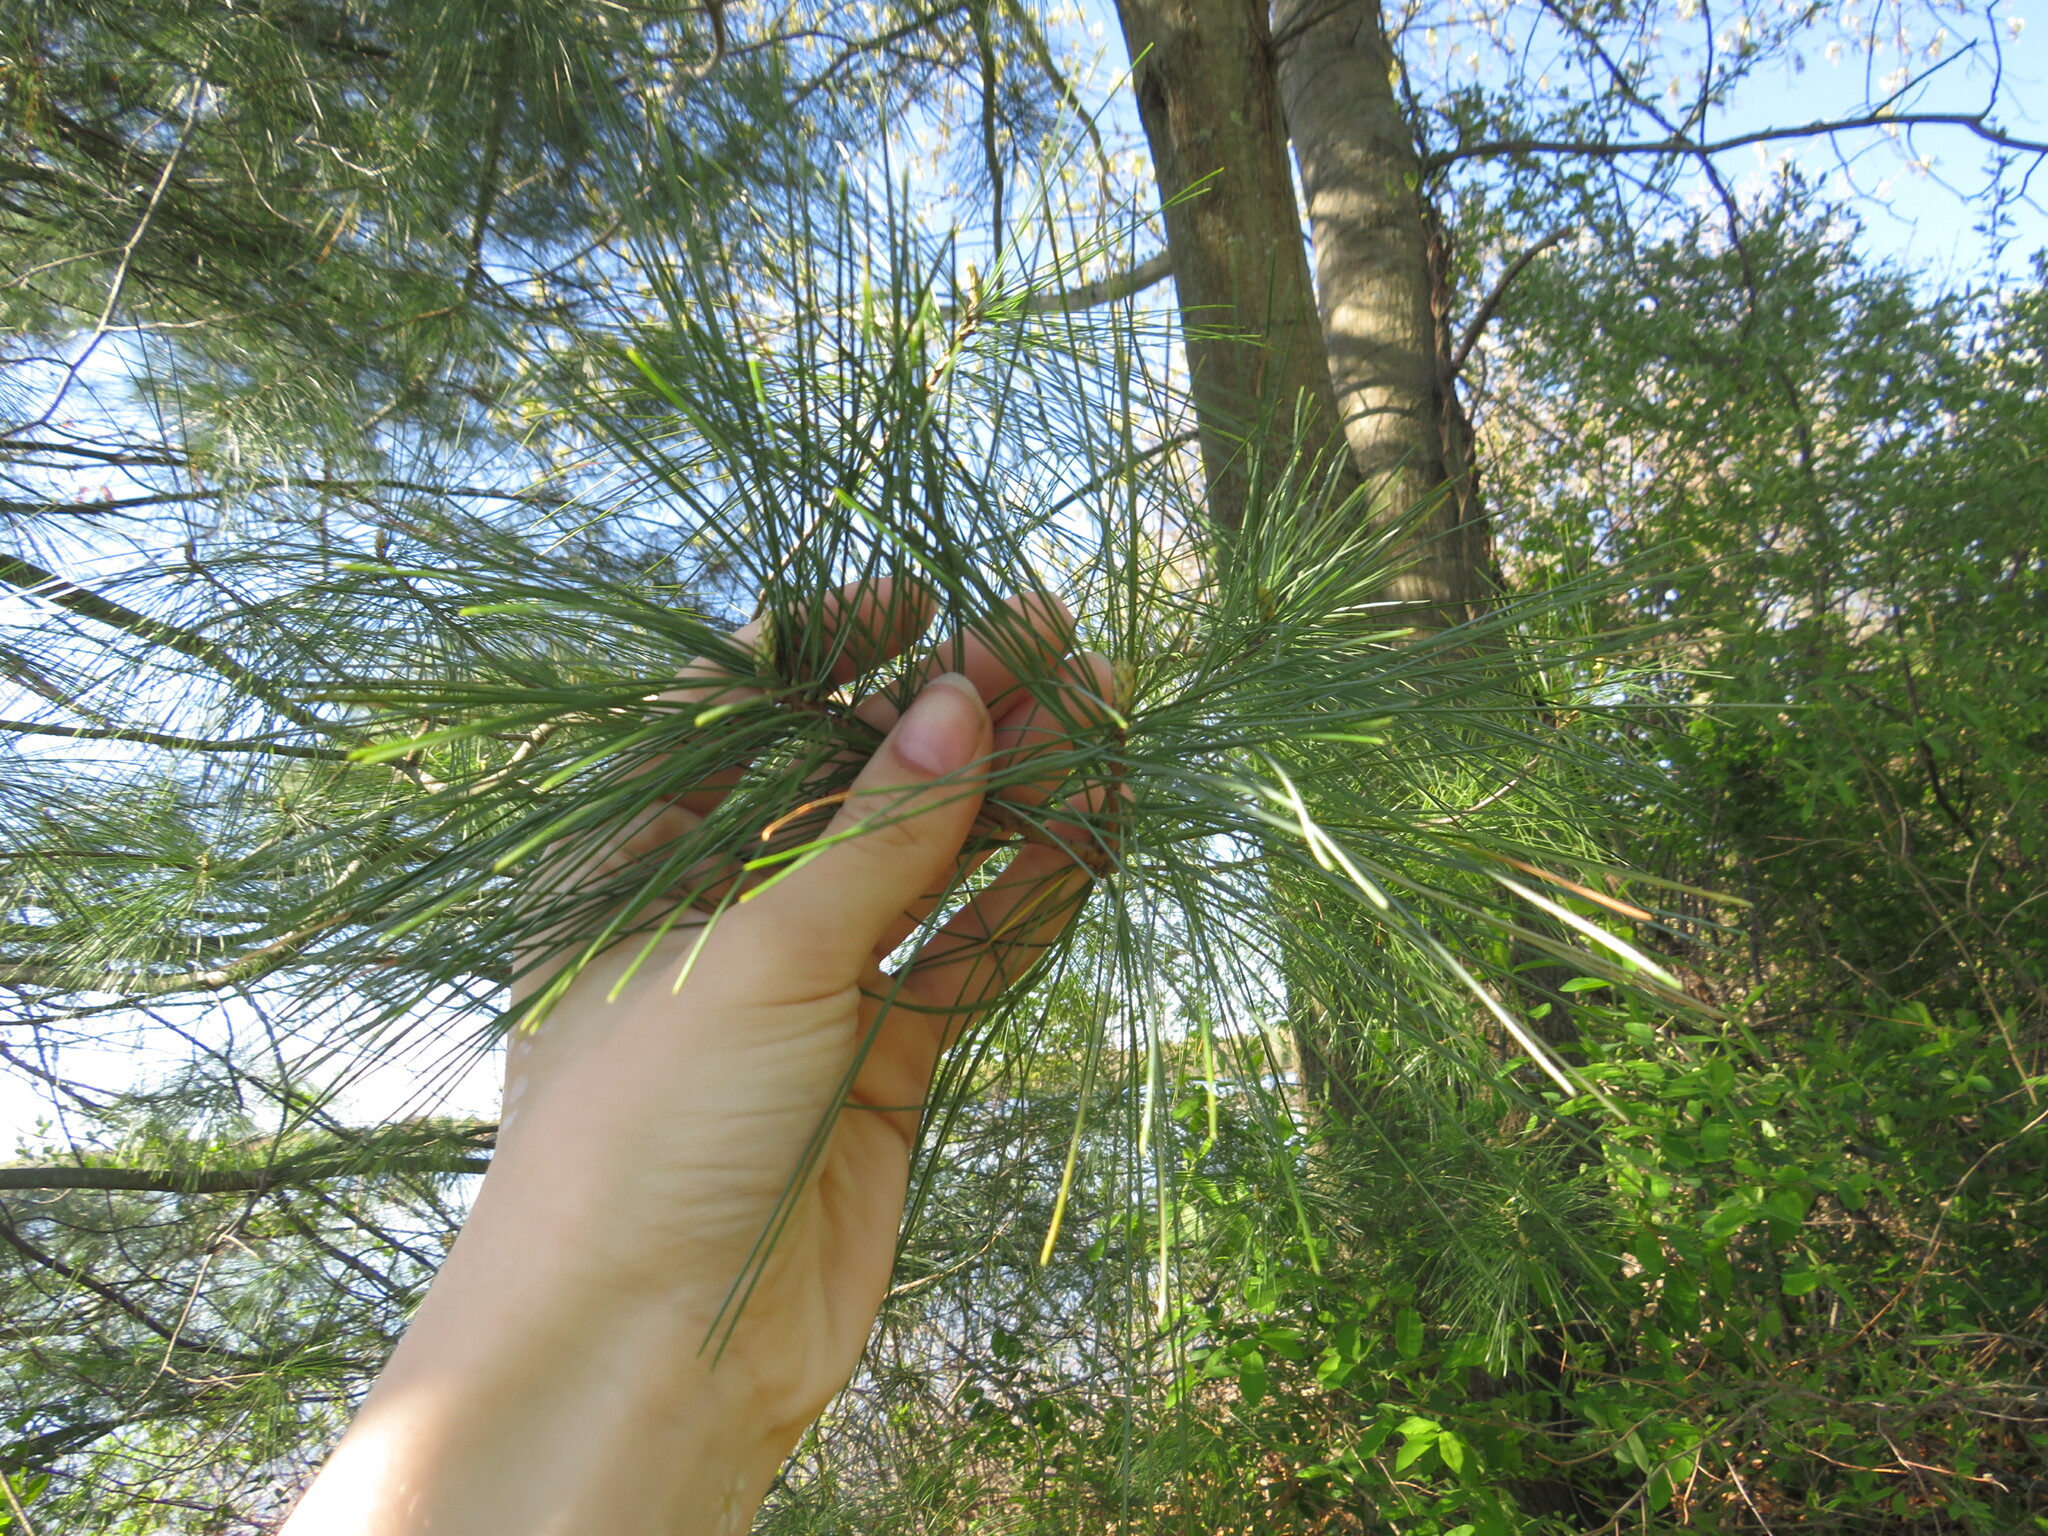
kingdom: Plantae
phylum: Tracheophyta
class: Pinopsida
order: Pinales
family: Pinaceae
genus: Pinus
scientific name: Pinus strobus
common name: Weymouth pine
